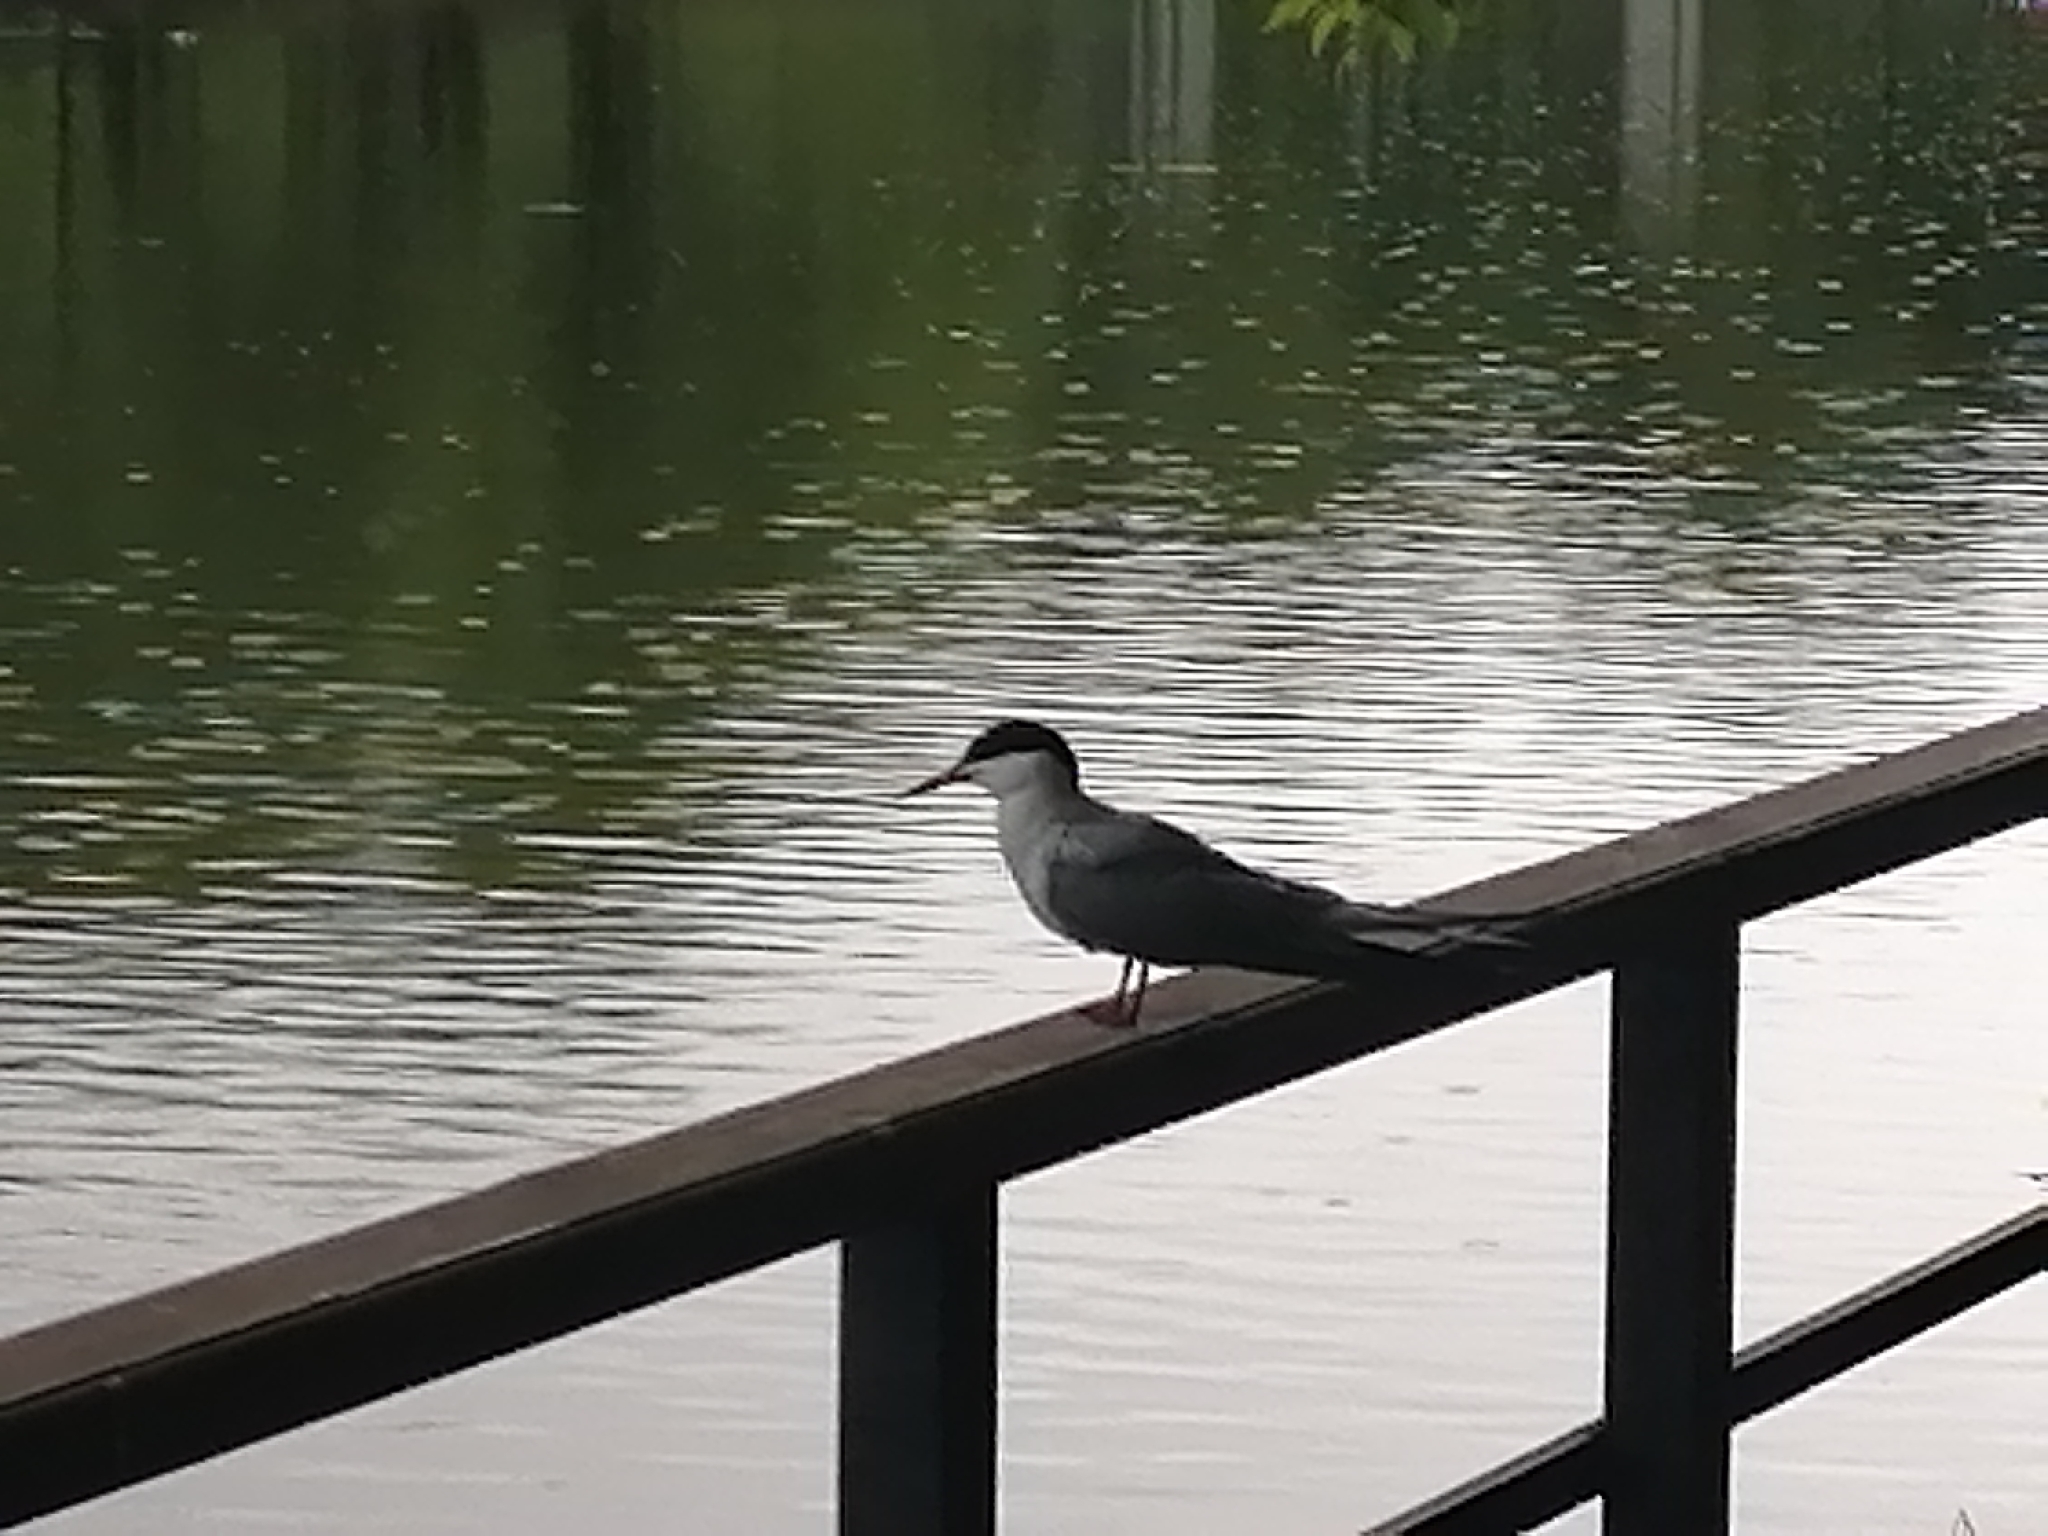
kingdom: Animalia
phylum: Chordata
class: Aves
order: Charadriiformes
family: Laridae
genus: Sterna
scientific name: Sterna hirundo
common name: Common tern
